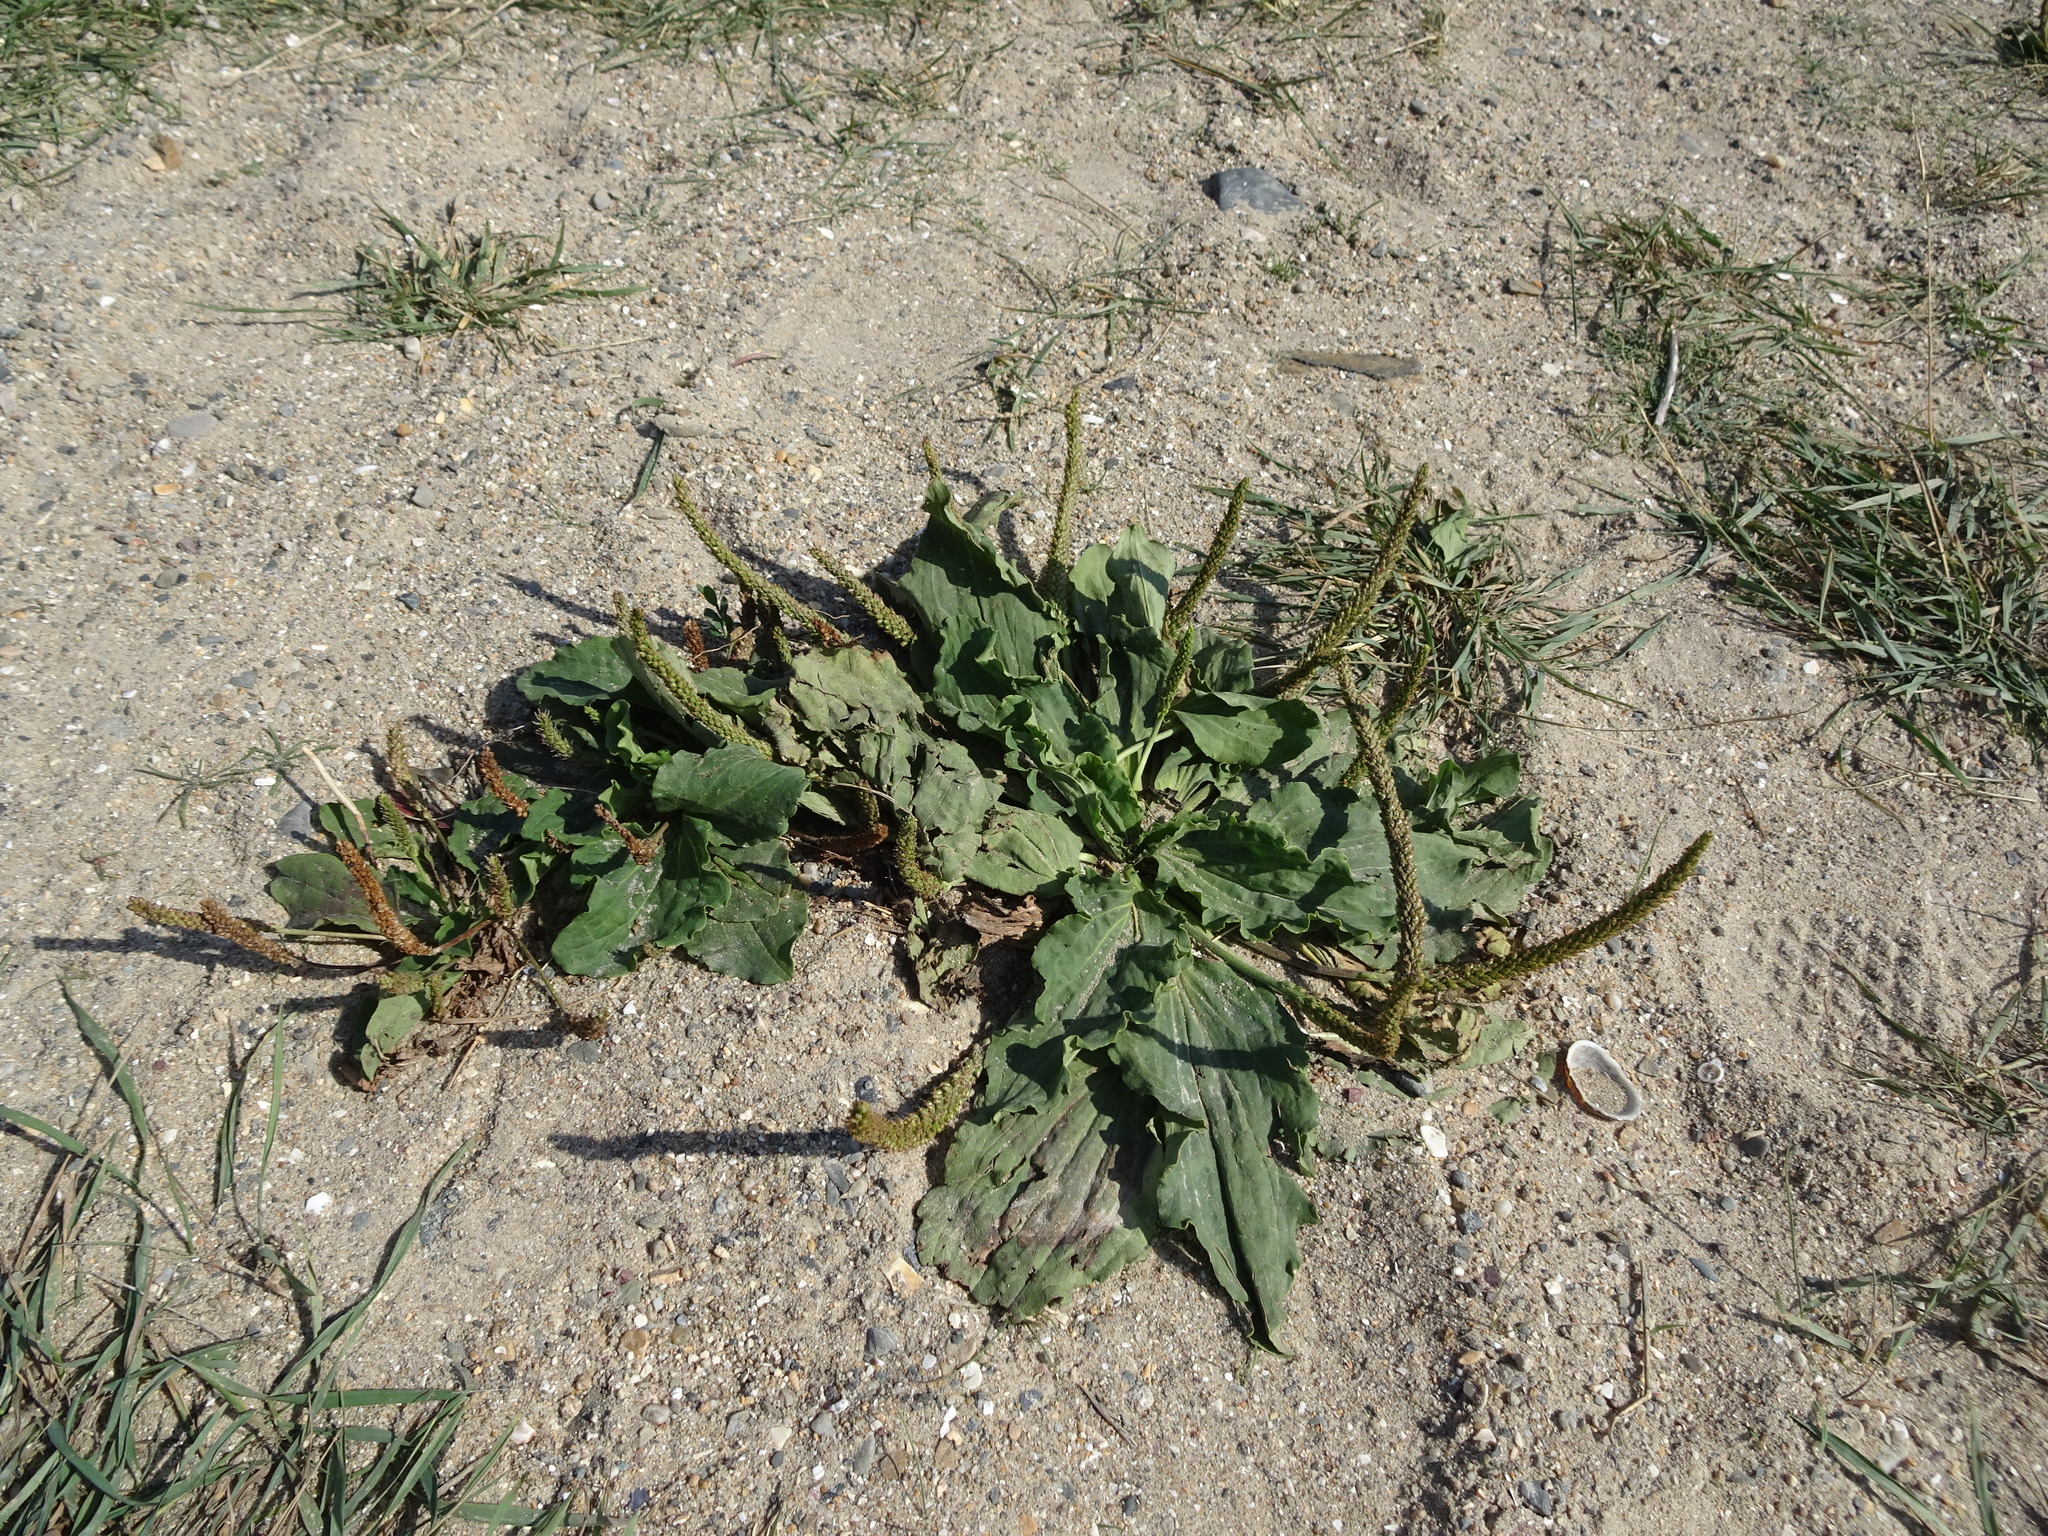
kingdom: Plantae
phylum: Tracheophyta
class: Magnoliopsida
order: Lamiales
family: Plantaginaceae
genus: Plantago
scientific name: Plantago major
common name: Common plantain
